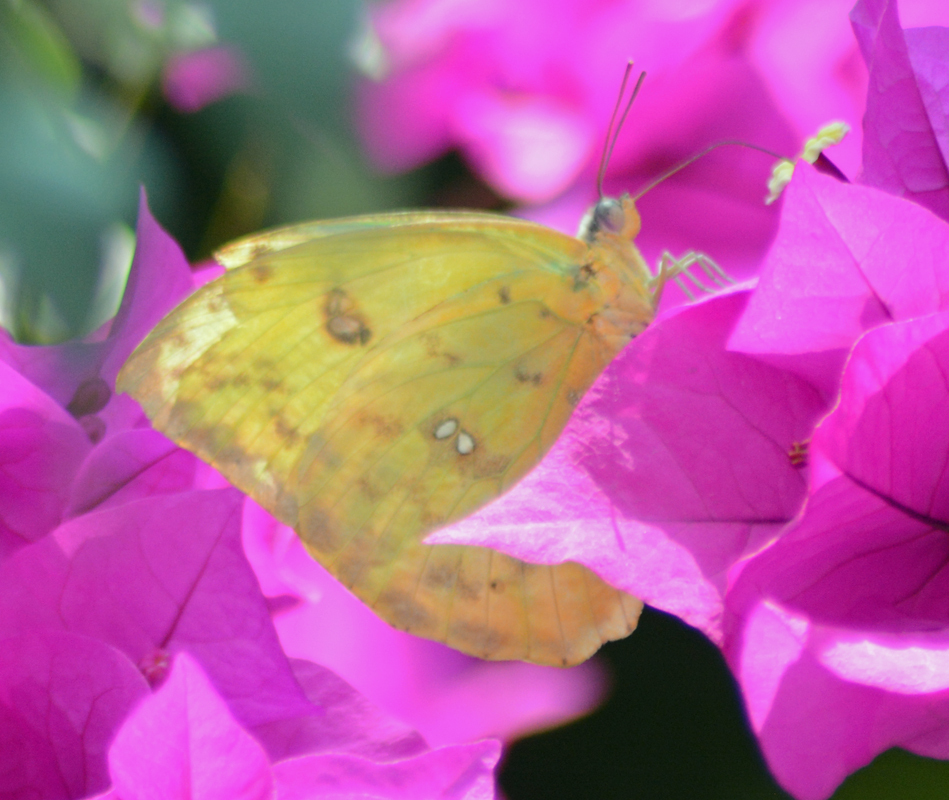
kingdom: Animalia
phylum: Arthropoda
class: Insecta
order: Lepidoptera
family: Pieridae
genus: Phoebis
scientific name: Phoebis philea
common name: Orange-barred giant sulphur
